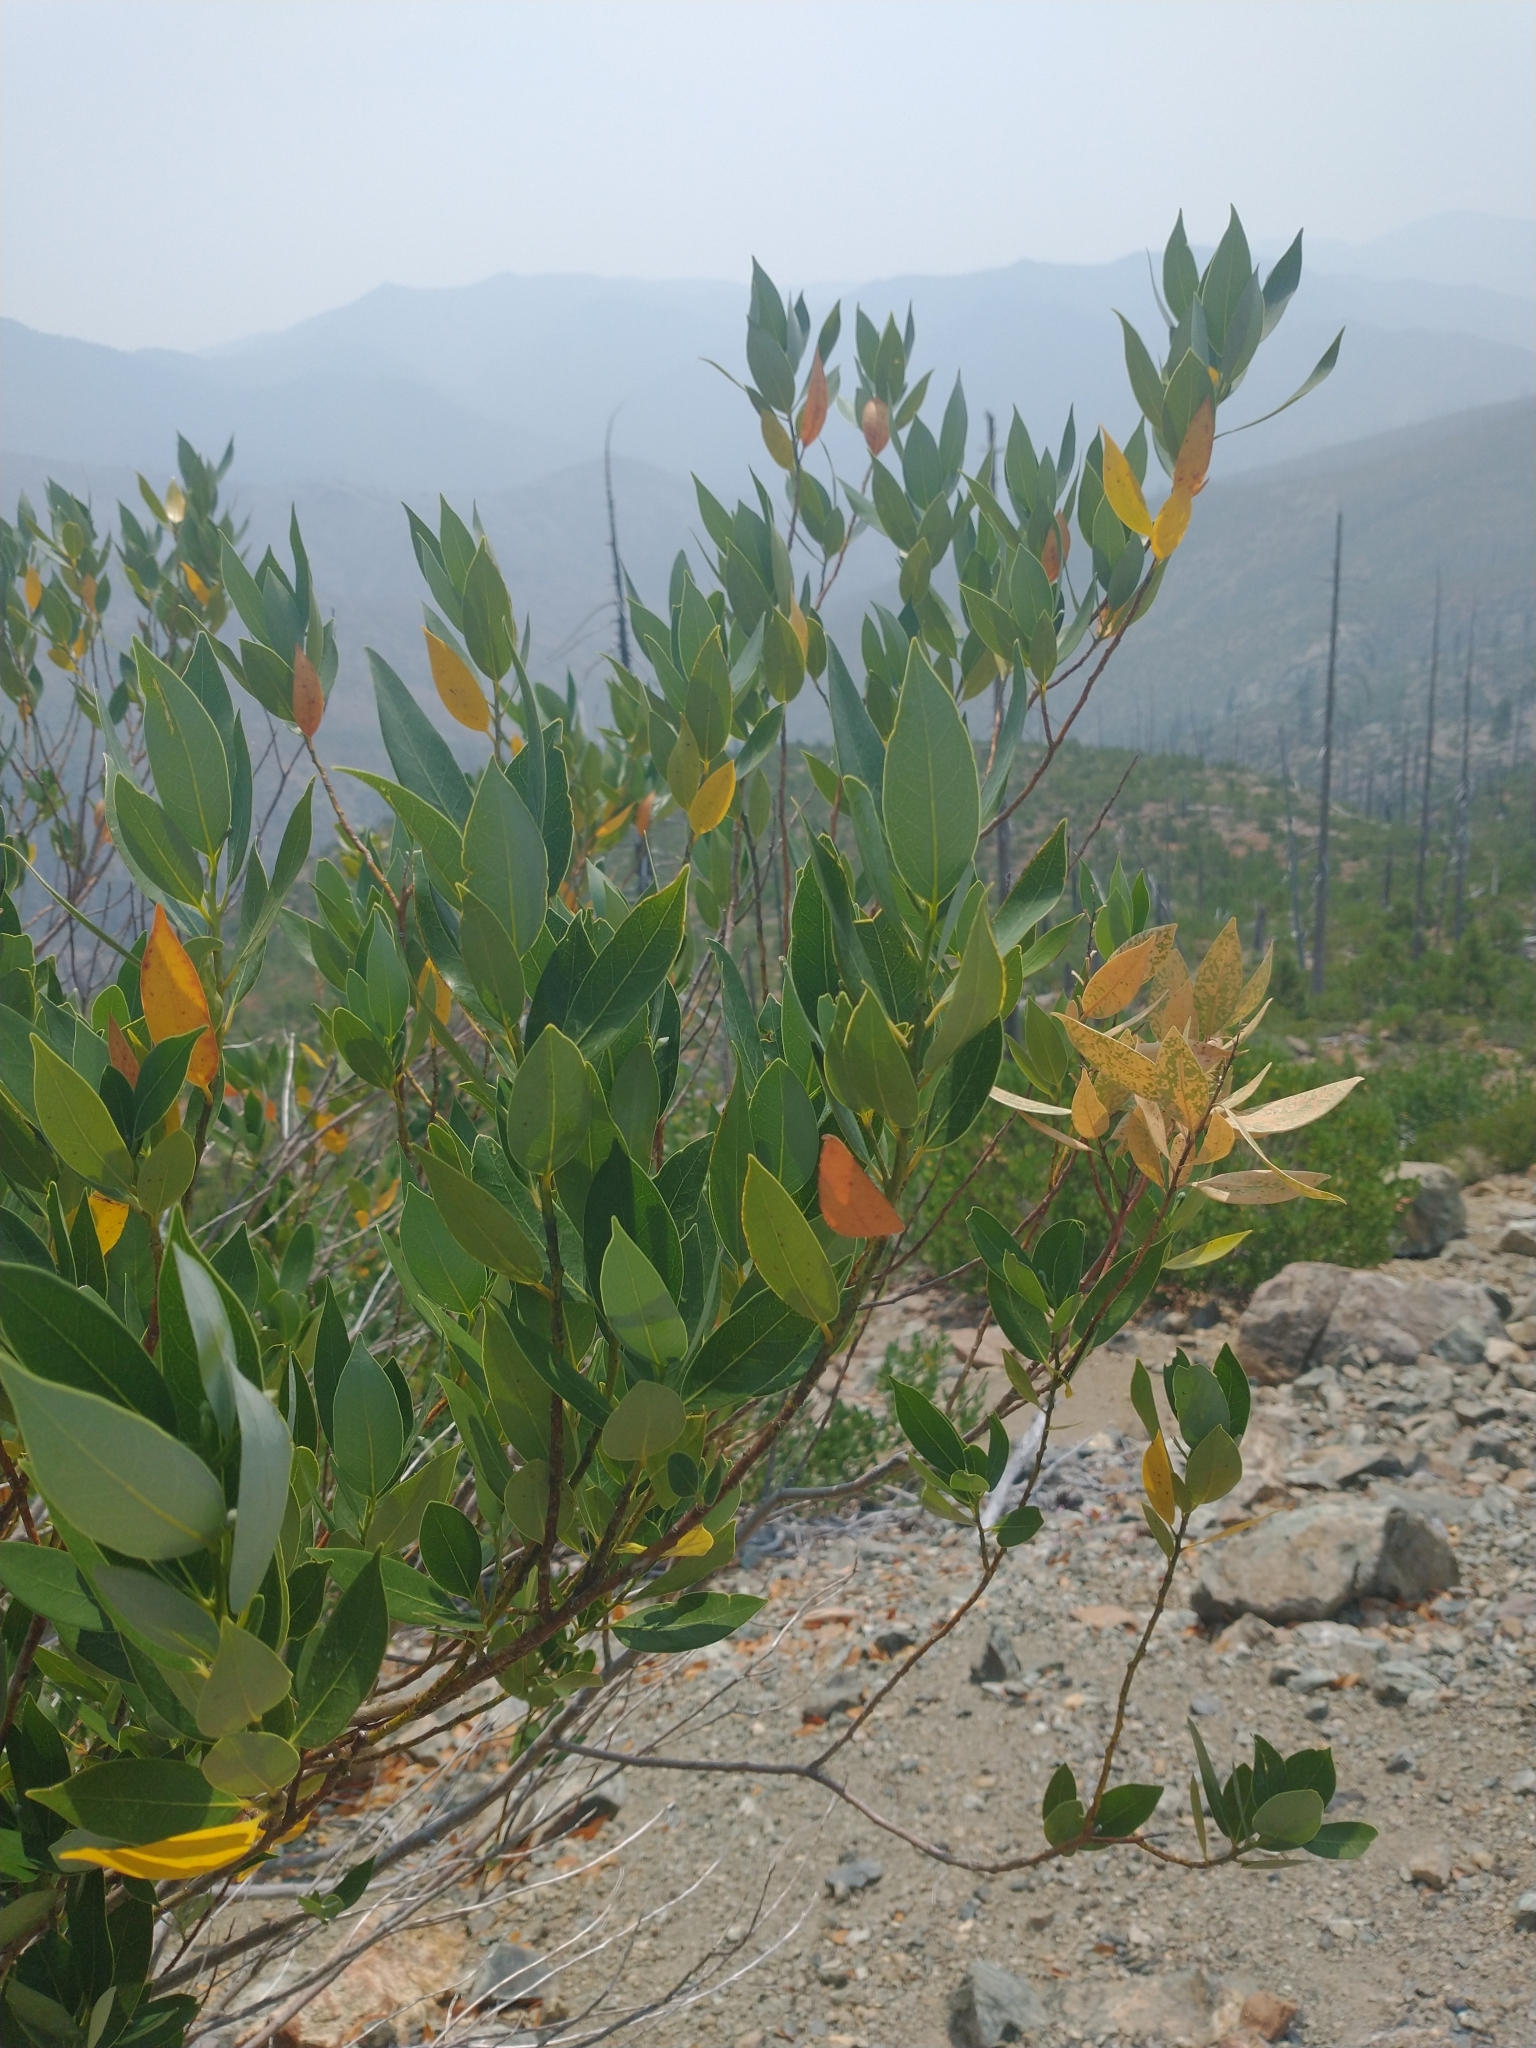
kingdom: Plantae
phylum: Tracheophyta
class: Magnoliopsida
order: Laurales
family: Lauraceae
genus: Umbellularia
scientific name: Umbellularia californica
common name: California bay
